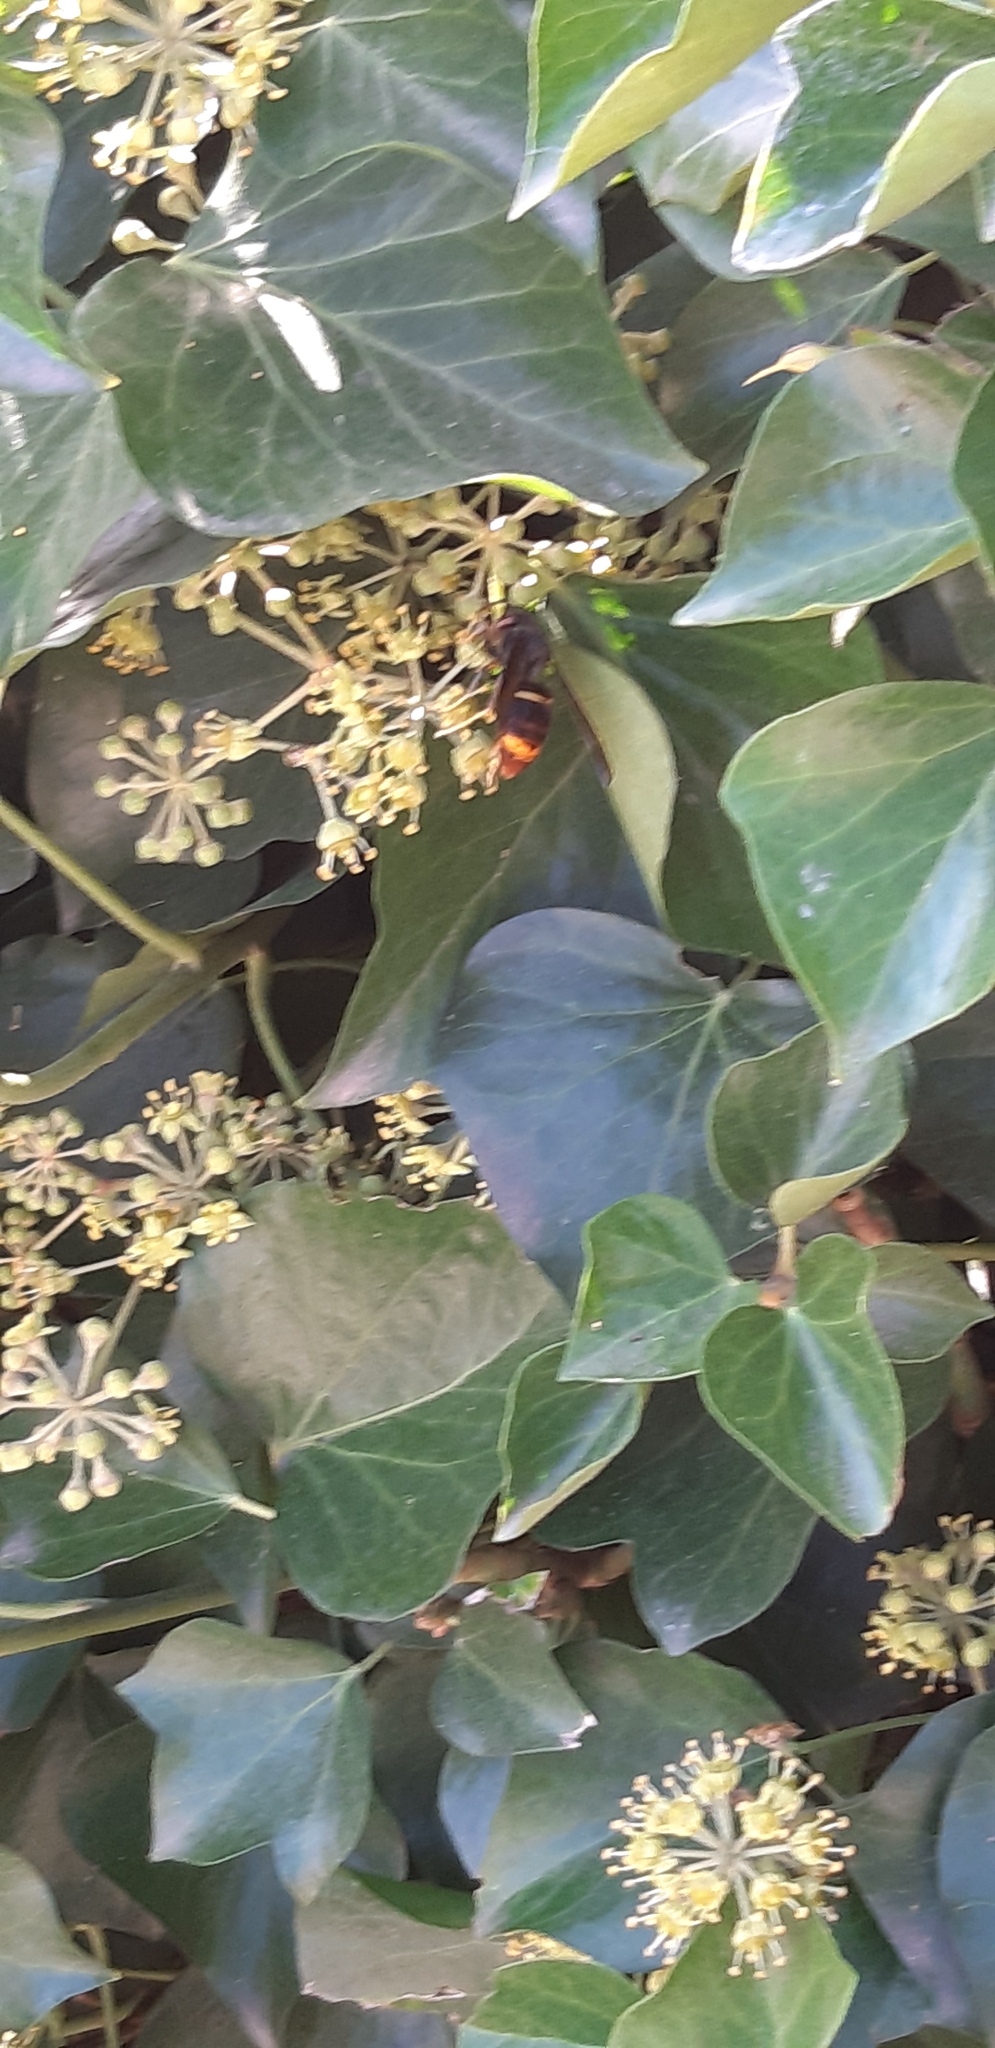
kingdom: Animalia
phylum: Arthropoda
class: Insecta
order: Hymenoptera
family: Vespidae
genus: Vespa
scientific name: Vespa velutina
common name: Asian hornet
